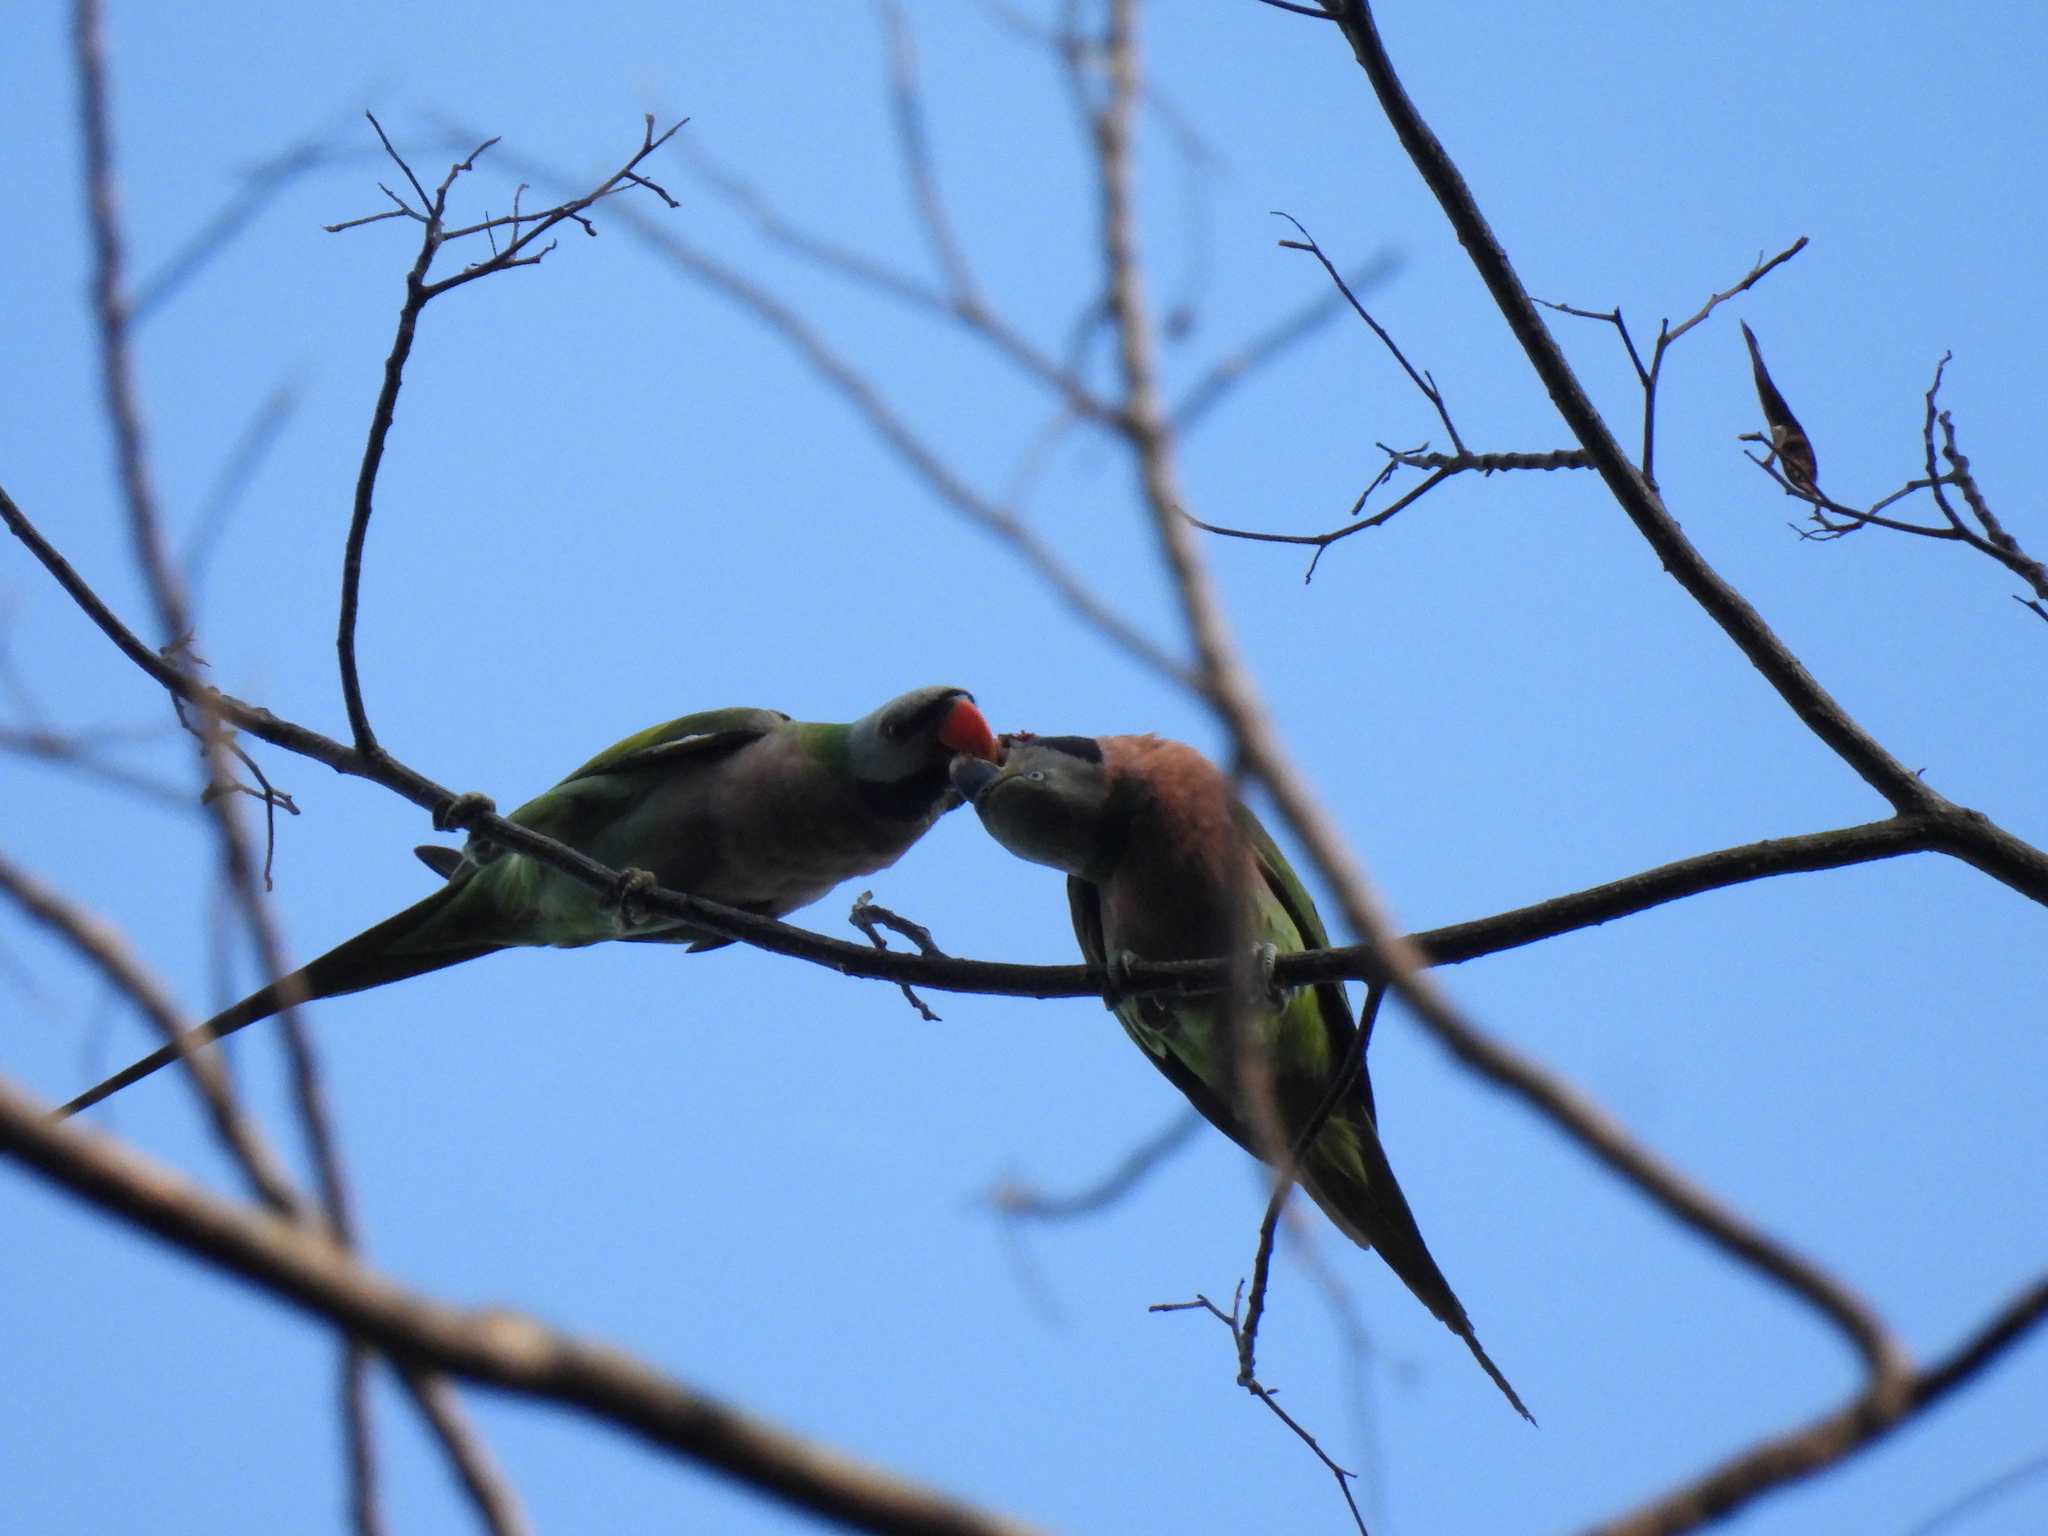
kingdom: Animalia
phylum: Chordata
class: Aves
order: Psittaciformes
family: Psittacidae
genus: Psittacula
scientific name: Psittacula alexandri
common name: Red-breasted parakeet
